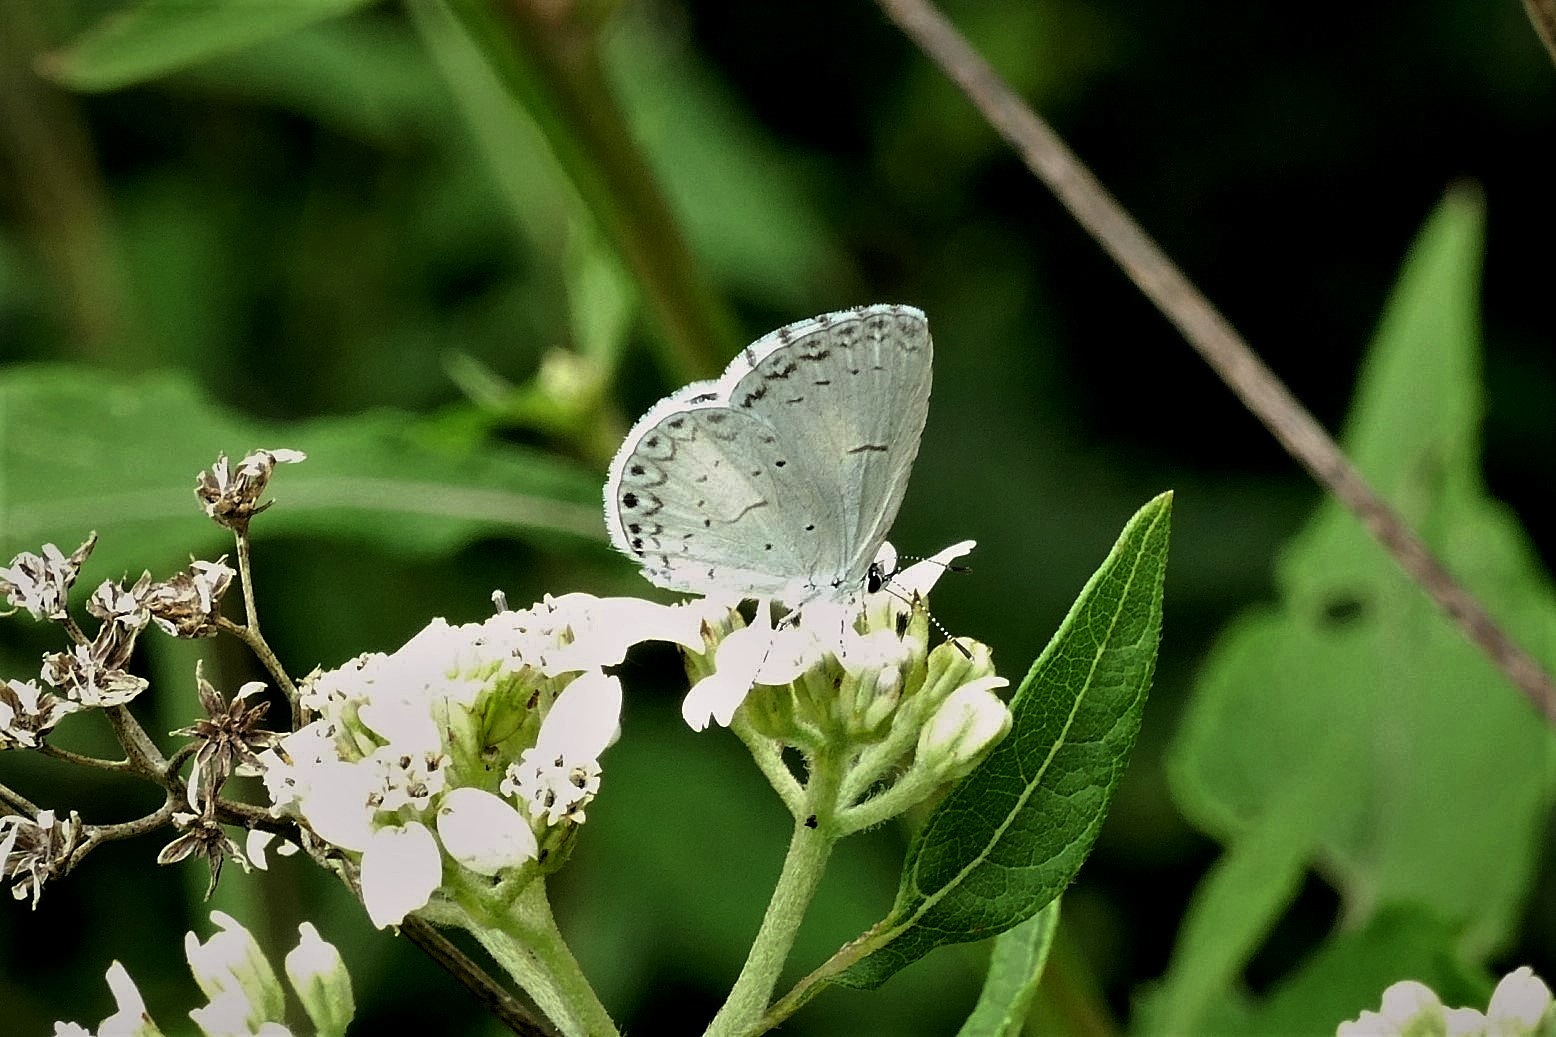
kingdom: Animalia
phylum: Arthropoda
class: Insecta
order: Lepidoptera
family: Lycaenidae
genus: Cyaniris
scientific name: Cyaniris neglecta
